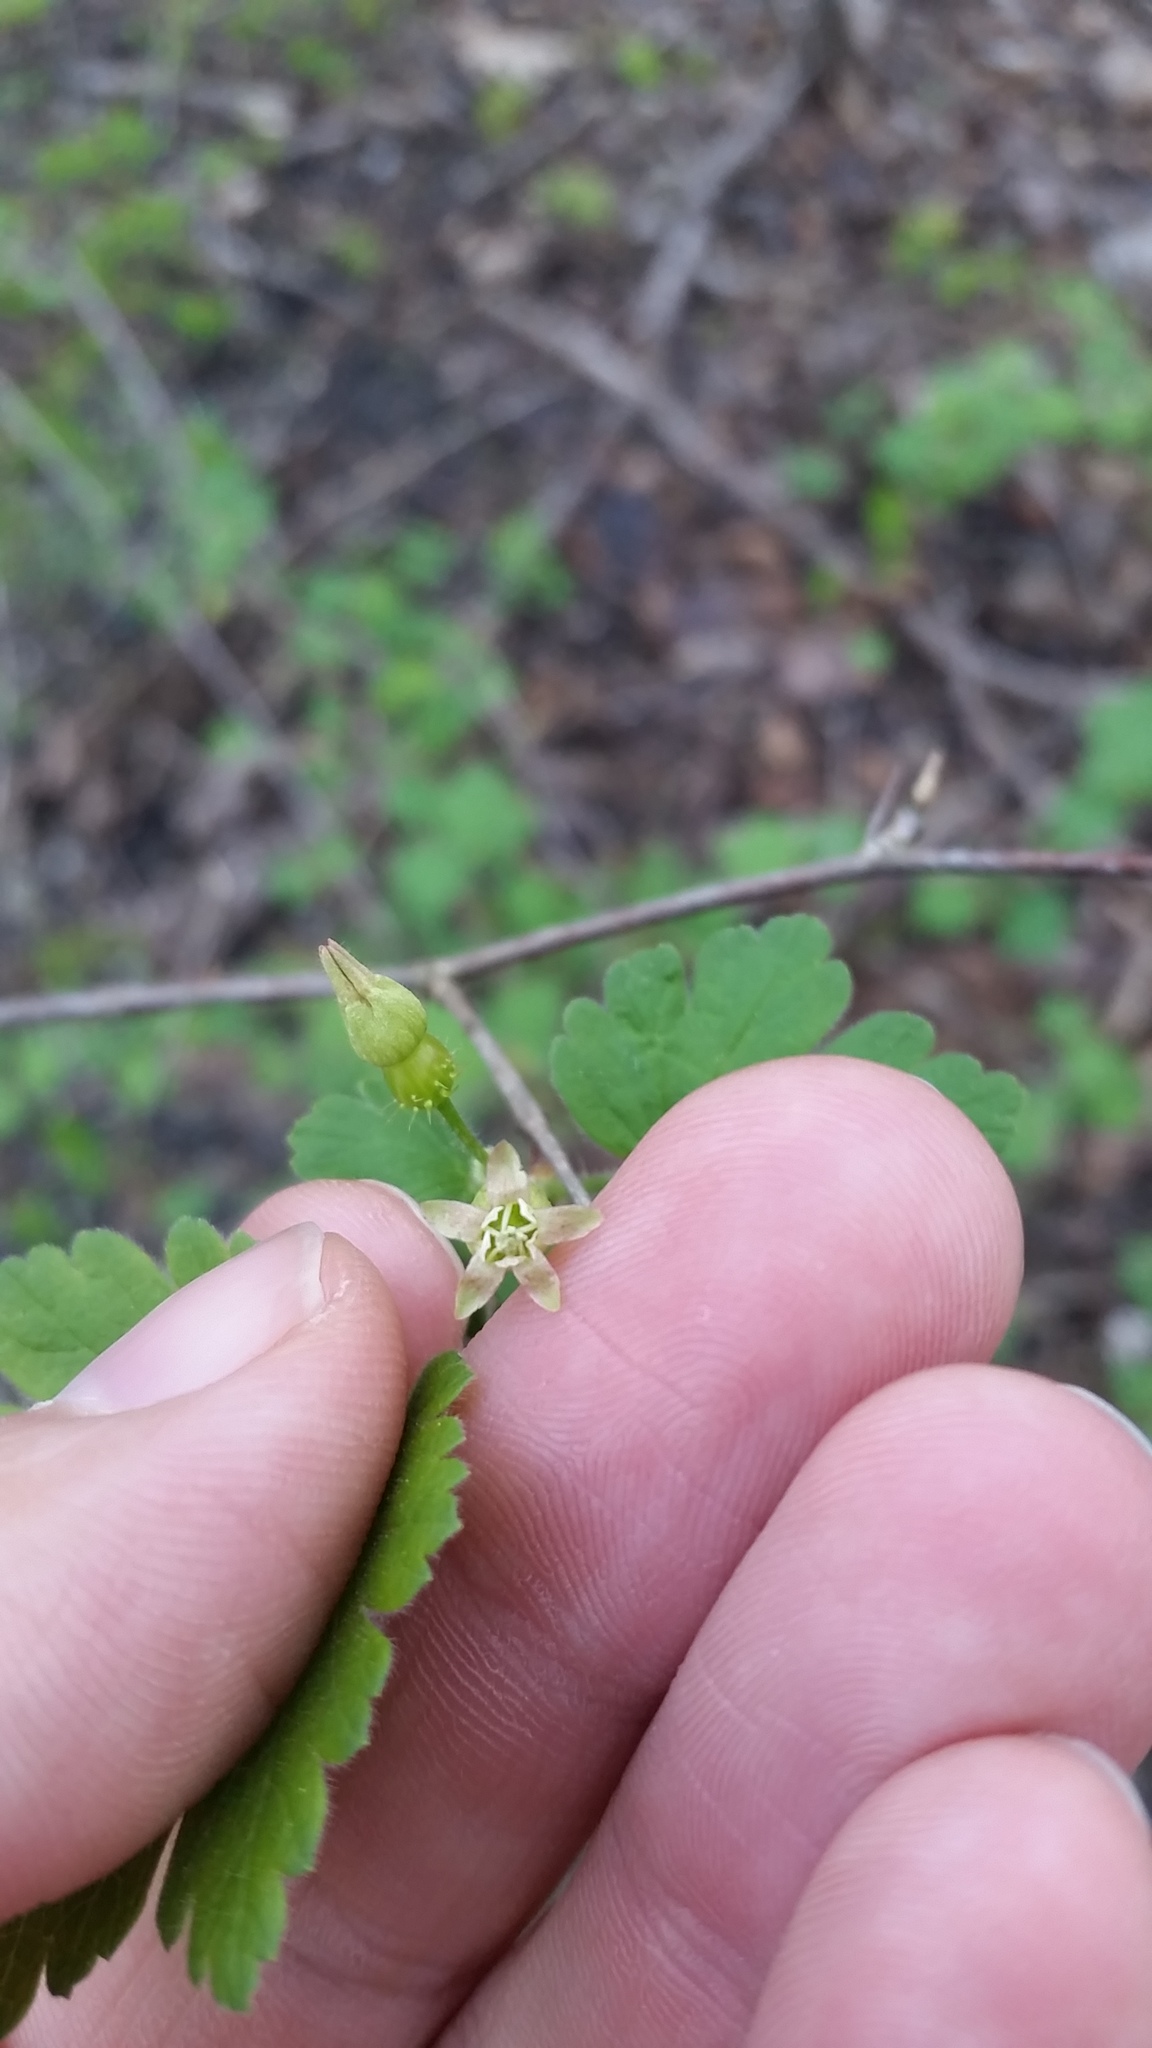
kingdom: Plantae
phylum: Tracheophyta
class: Magnoliopsida
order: Saxifragales
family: Grossulariaceae
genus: Ribes
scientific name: Ribes cynosbati
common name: American gooseberry
